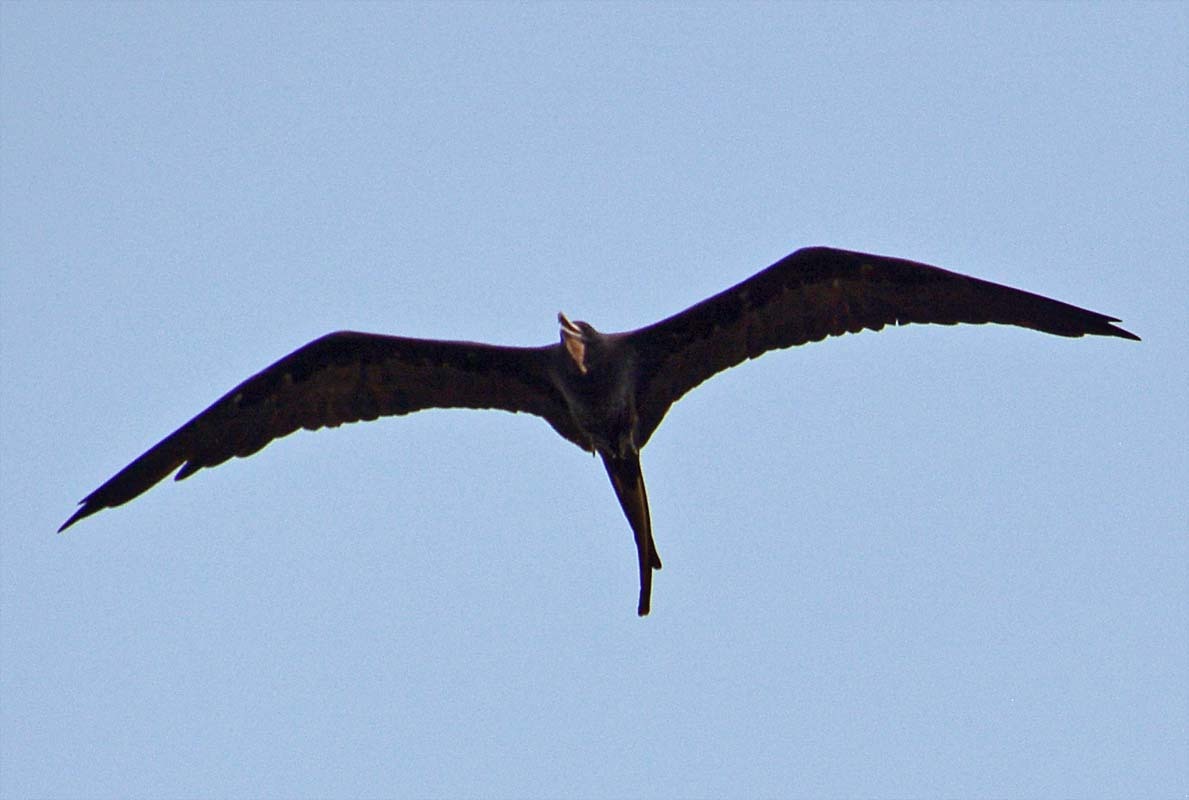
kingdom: Animalia
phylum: Chordata
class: Aves
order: Suliformes
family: Fregatidae
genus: Fregata
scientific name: Fregata magnificens
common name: Magnificent frigatebird
